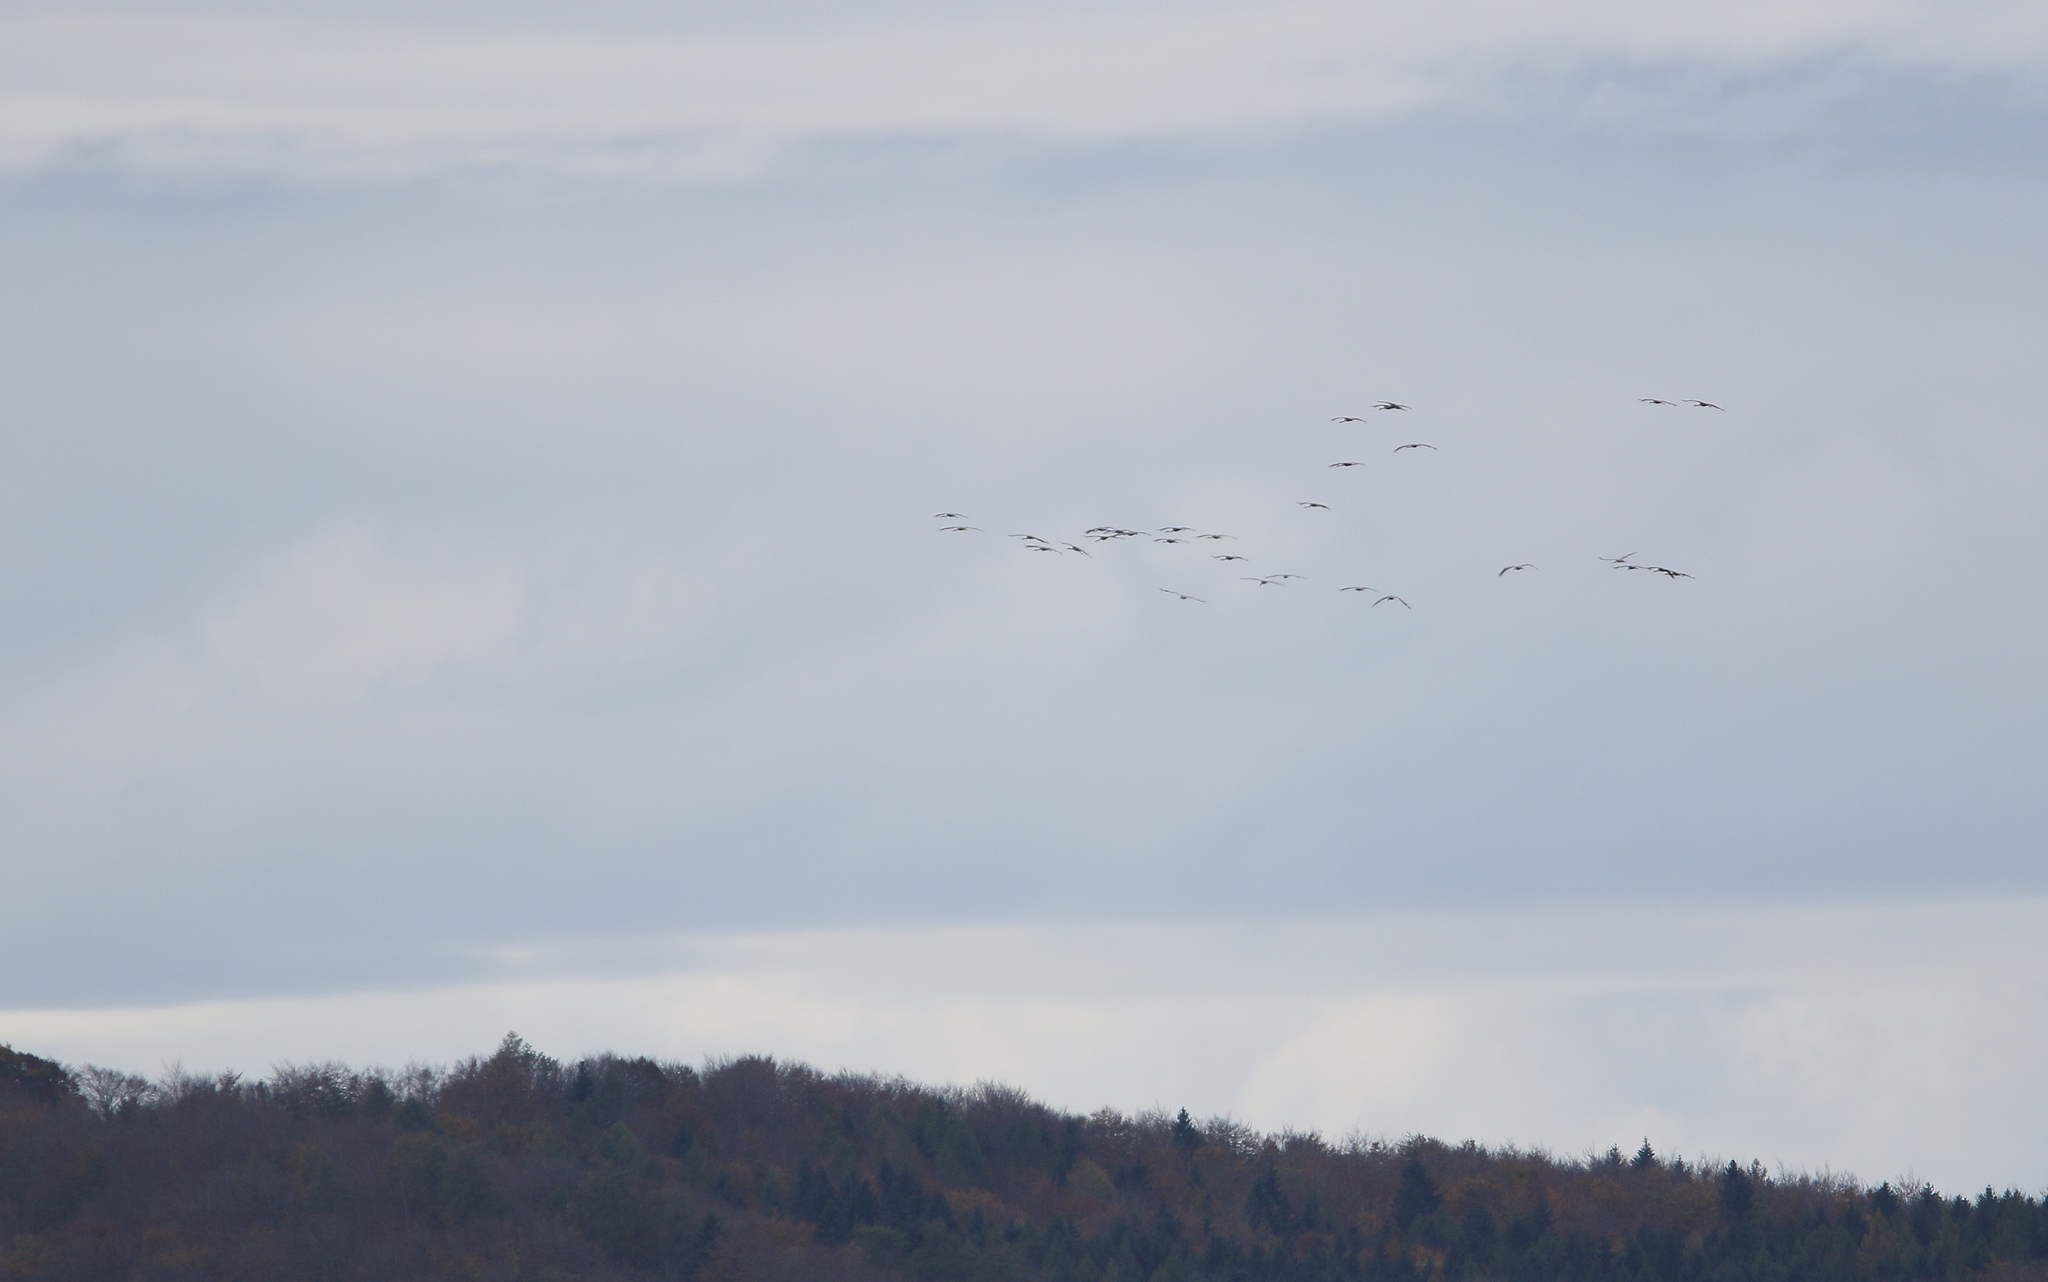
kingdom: Animalia
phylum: Chordata
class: Aves
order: Gruiformes
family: Gruidae
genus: Grus
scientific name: Grus grus
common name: Common crane
